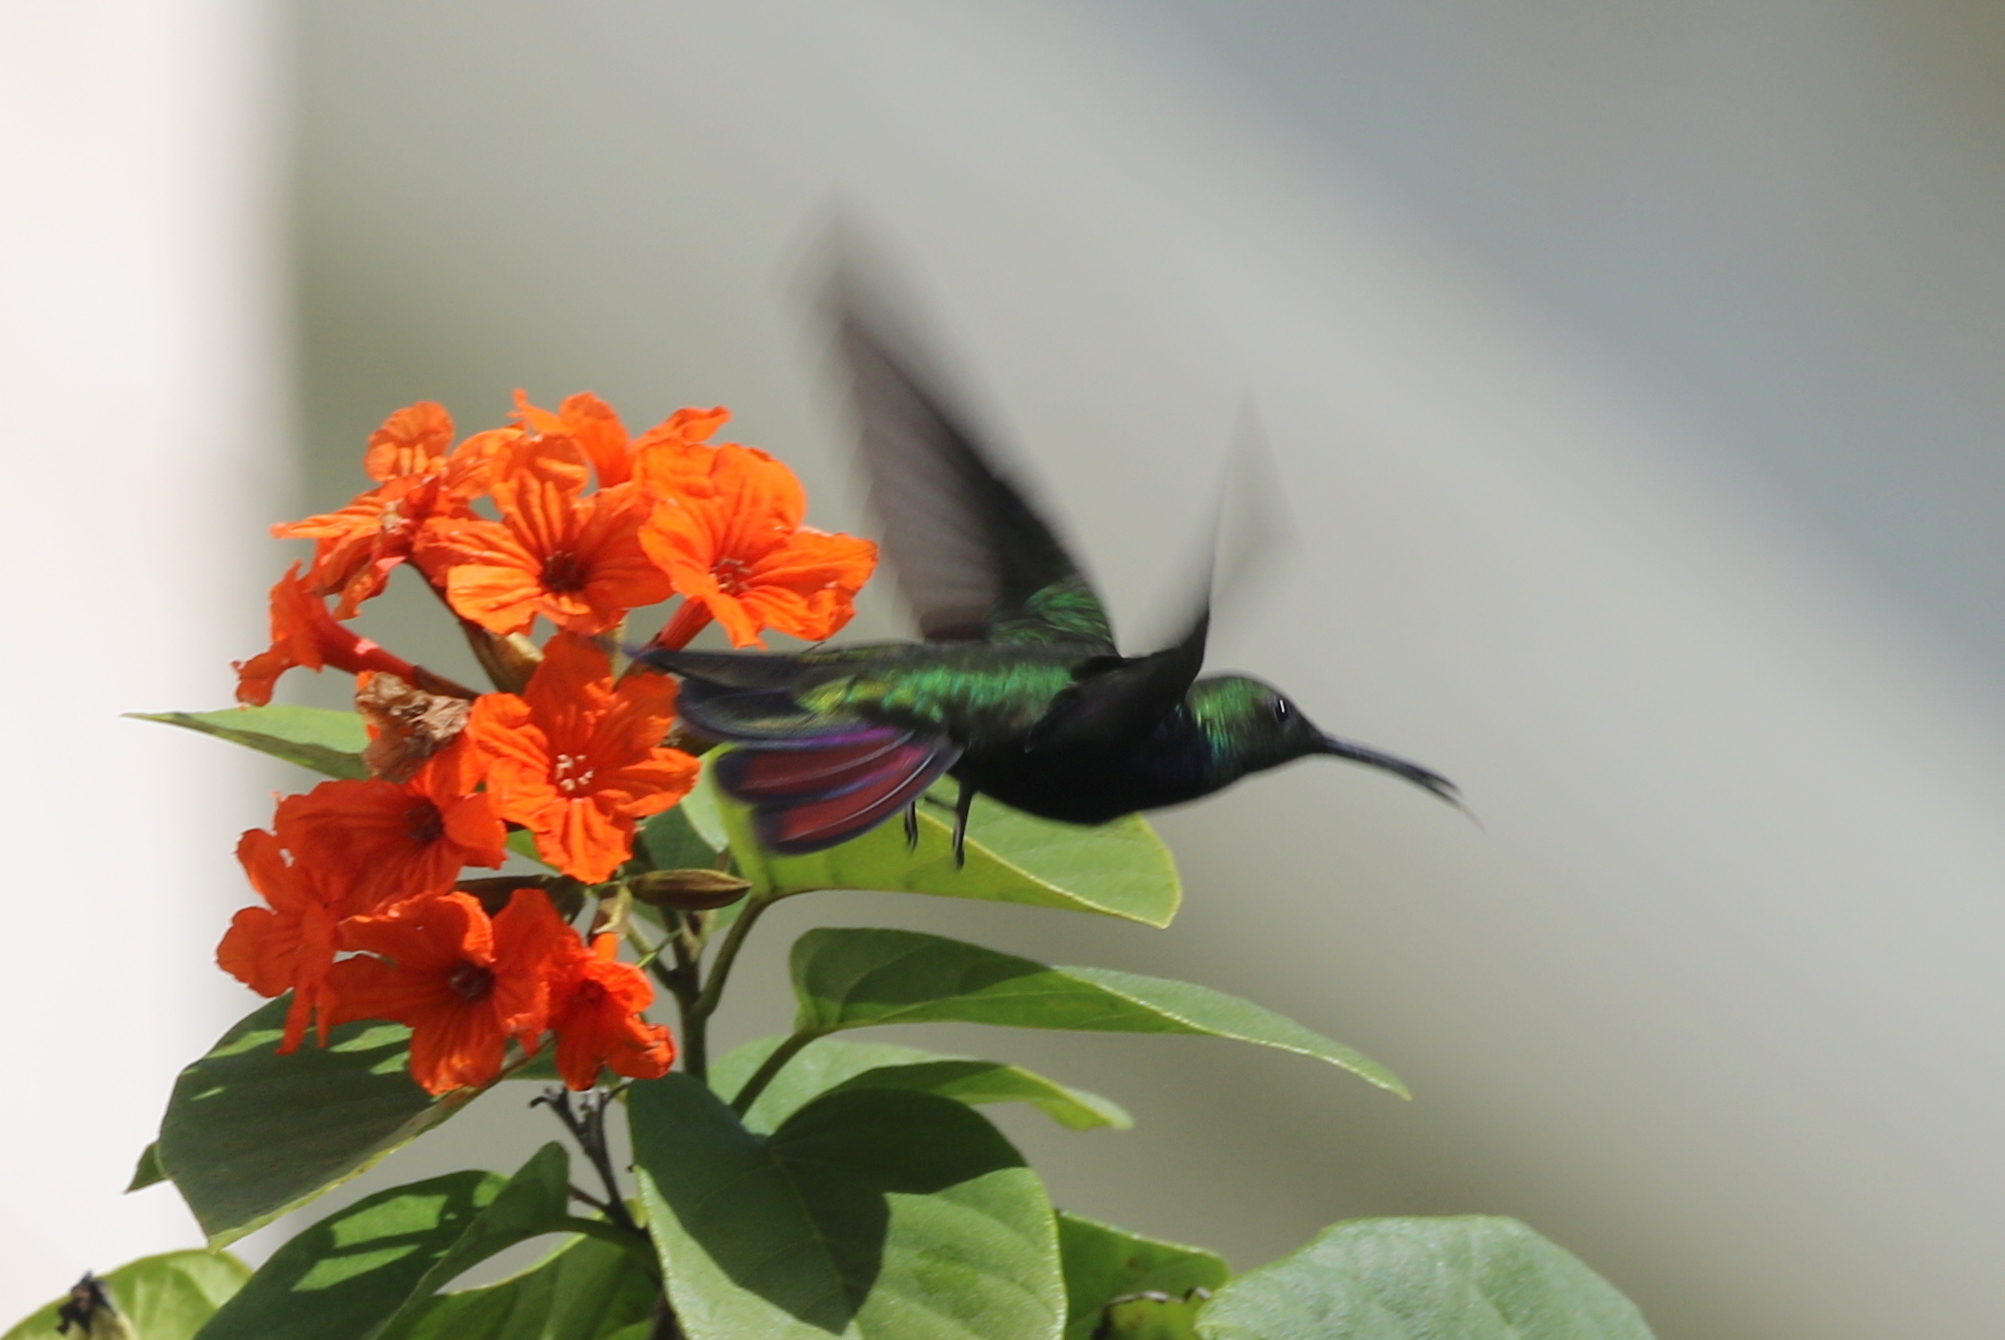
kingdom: Animalia
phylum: Chordata
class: Aves
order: Apodiformes
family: Trochilidae
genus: Anthracothorax
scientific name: Anthracothorax dominicus
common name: Antillean mango
